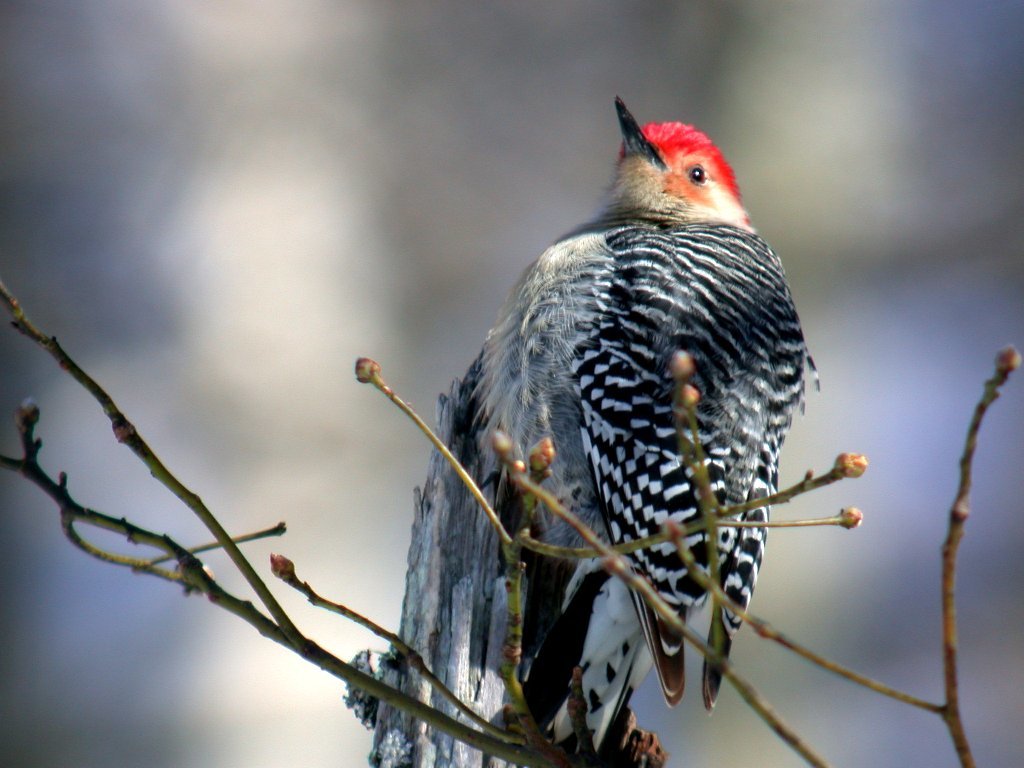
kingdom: Animalia
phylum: Chordata
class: Aves
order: Piciformes
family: Picidae
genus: Melanerpes
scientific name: Melanerpes carolinus
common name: Red-bellied woodpecker
